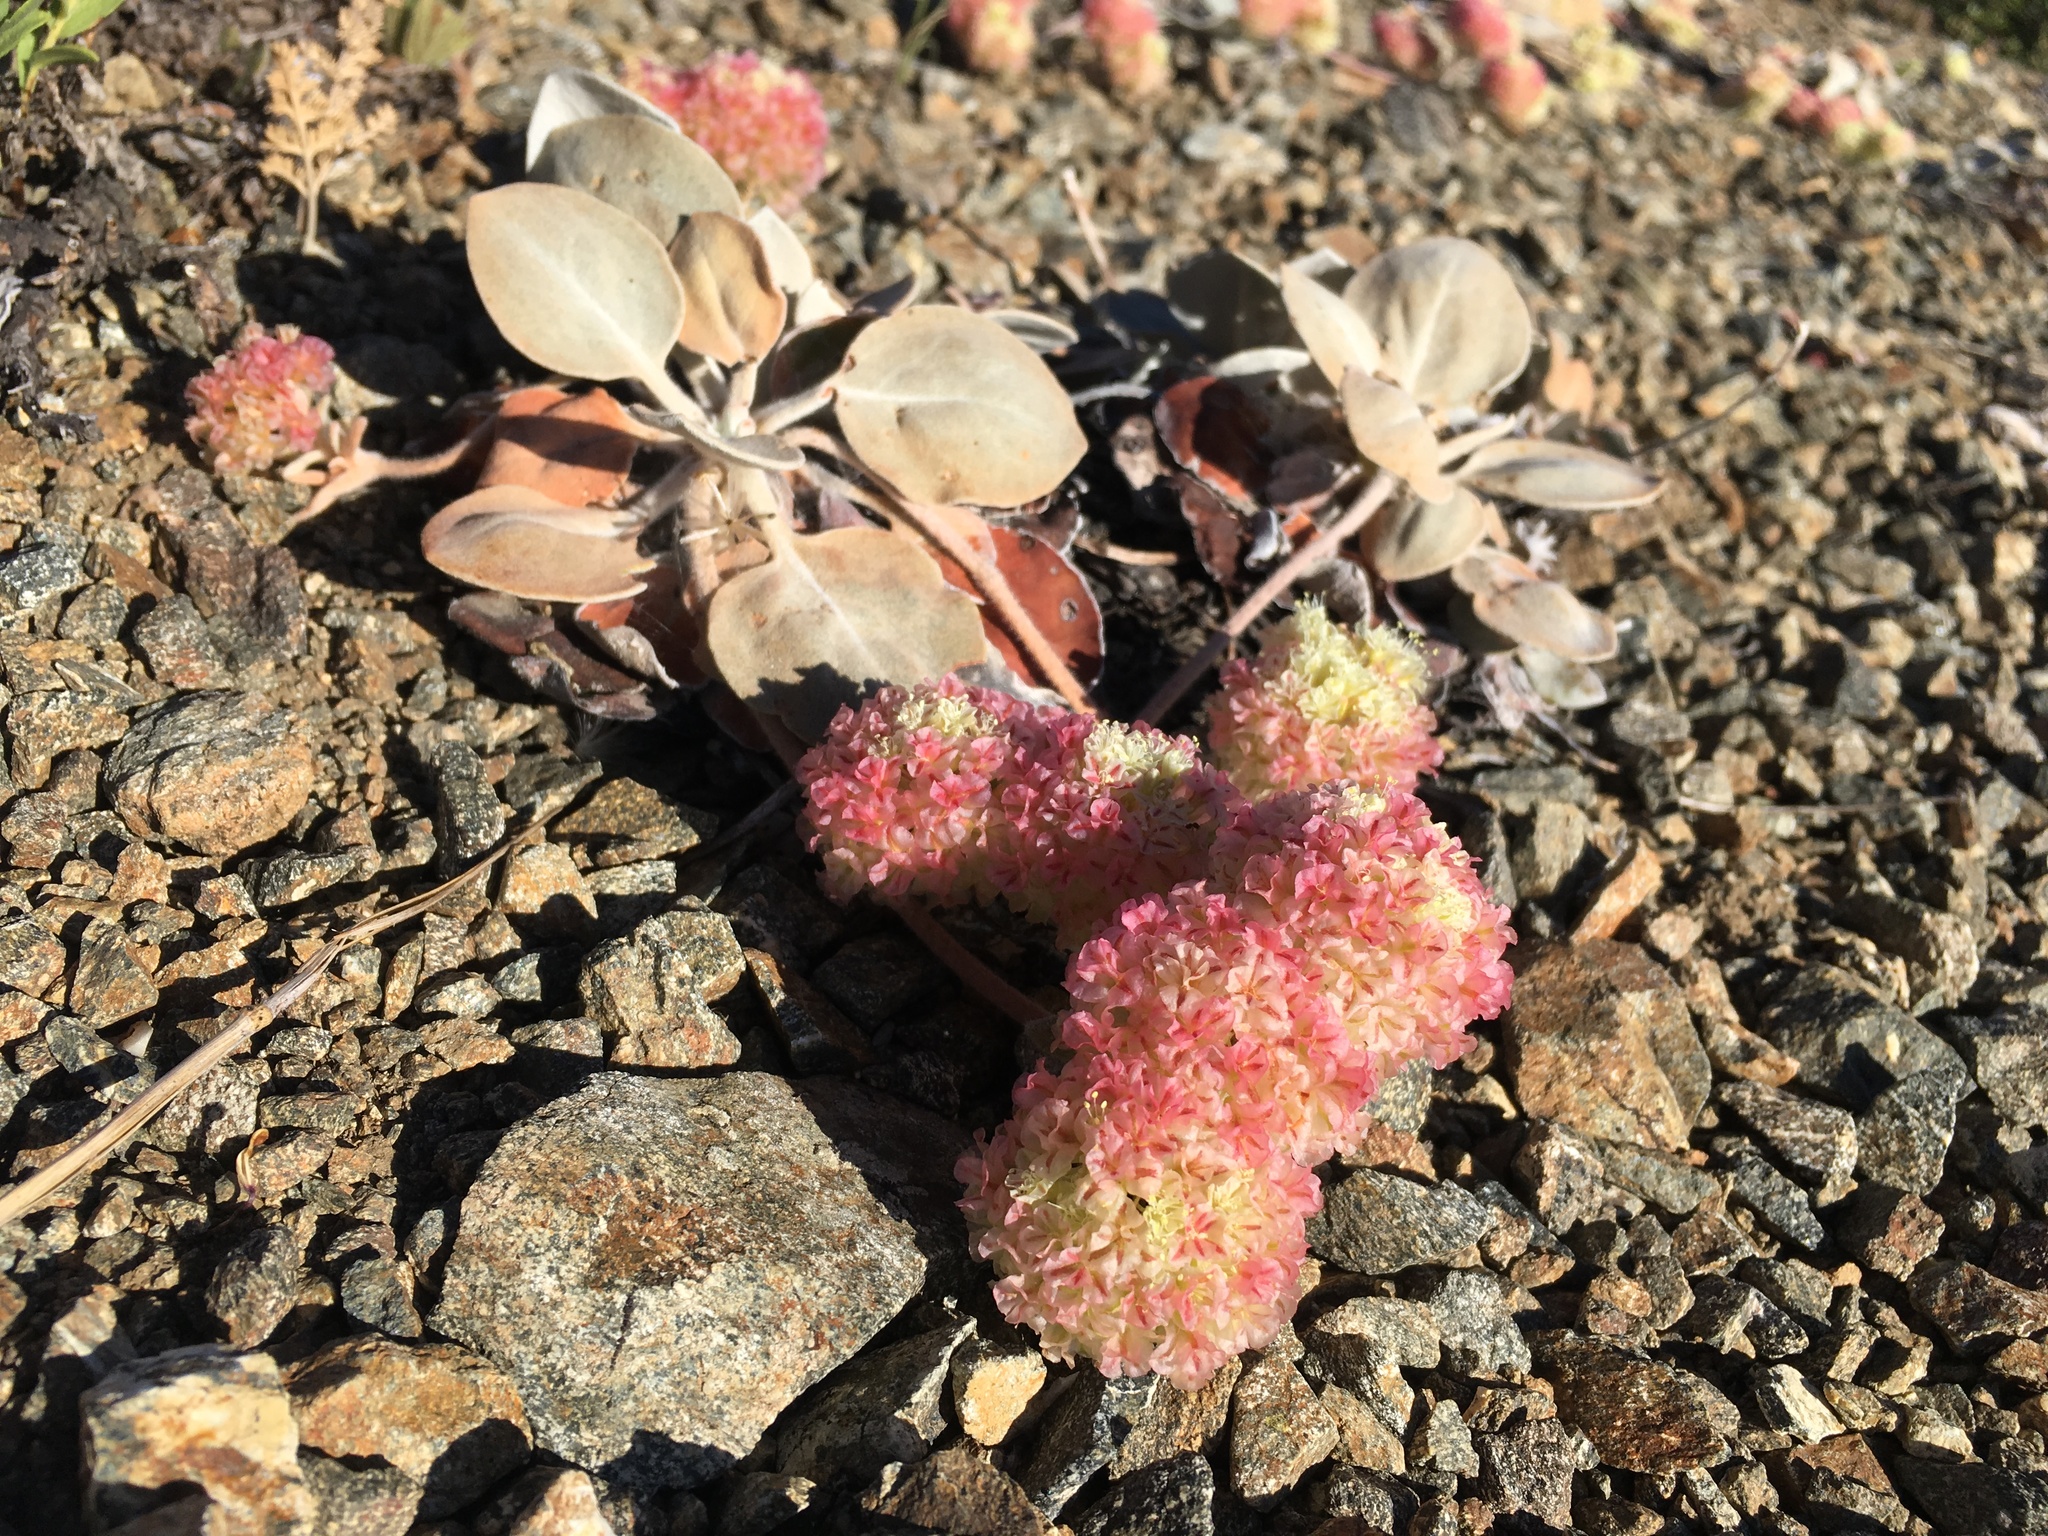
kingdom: Plantae
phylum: Tracheophyta
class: Magnoliopsida
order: Caryophyllales
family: Polygonaceae
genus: Eriogonum
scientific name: Eriogonum lobbii
